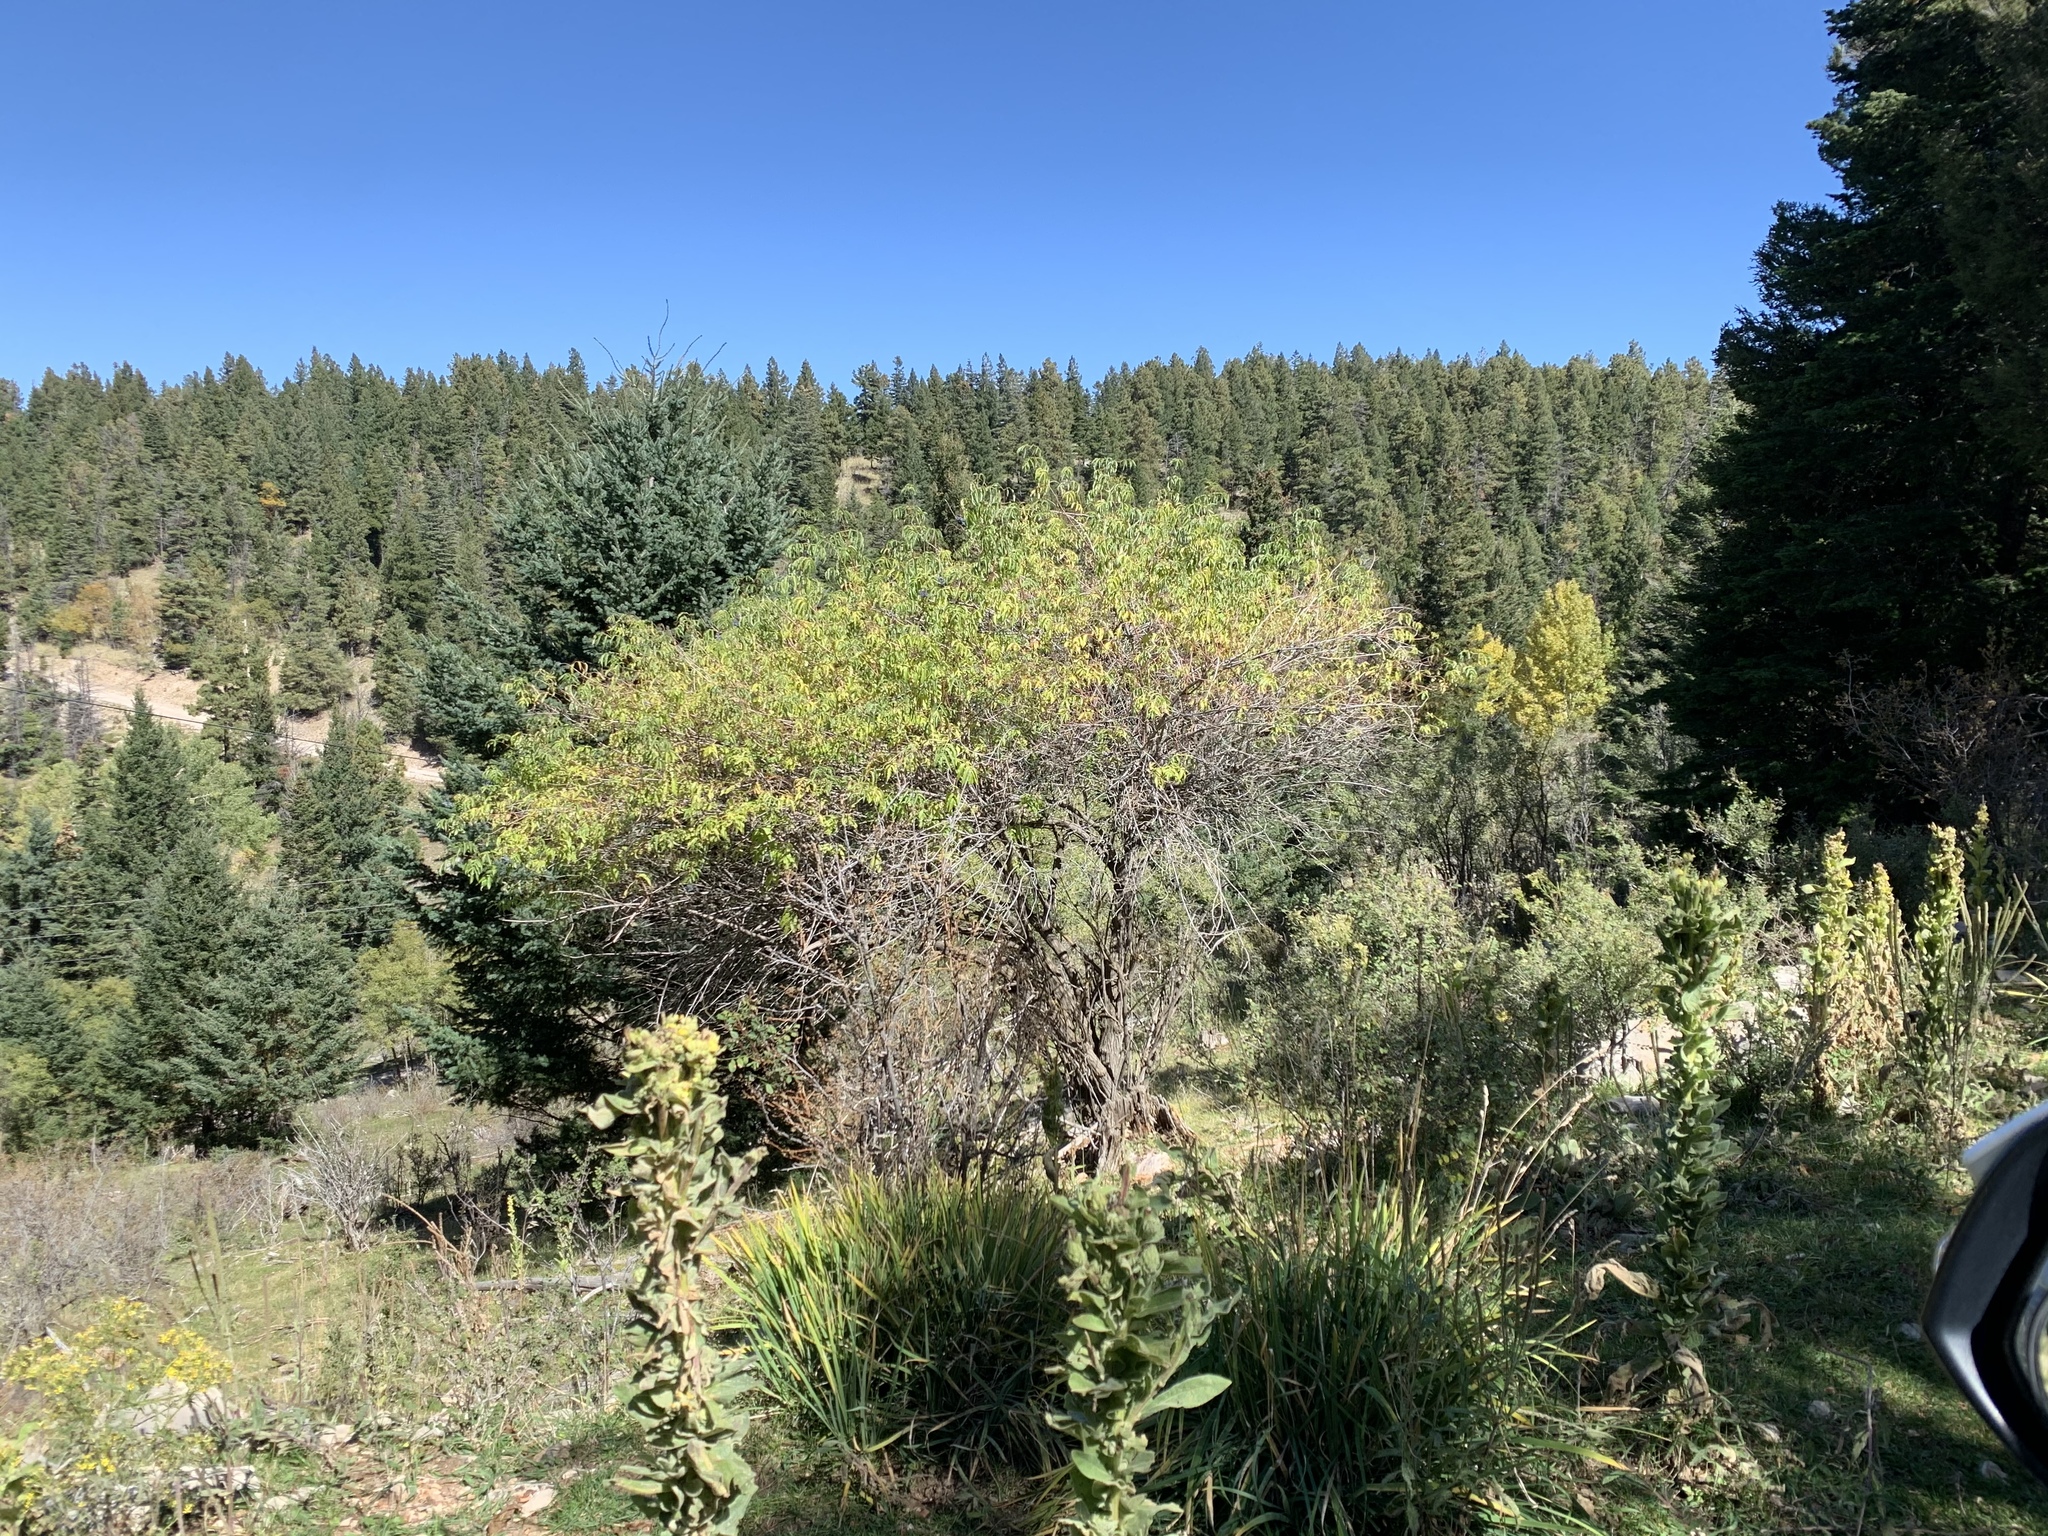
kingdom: Plantae
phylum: Tracheophyta
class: Magnoliopsida
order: Dipsacales
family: Viburnaceae
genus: Sambucus
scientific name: Sambucus cerulea
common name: Blue elder
